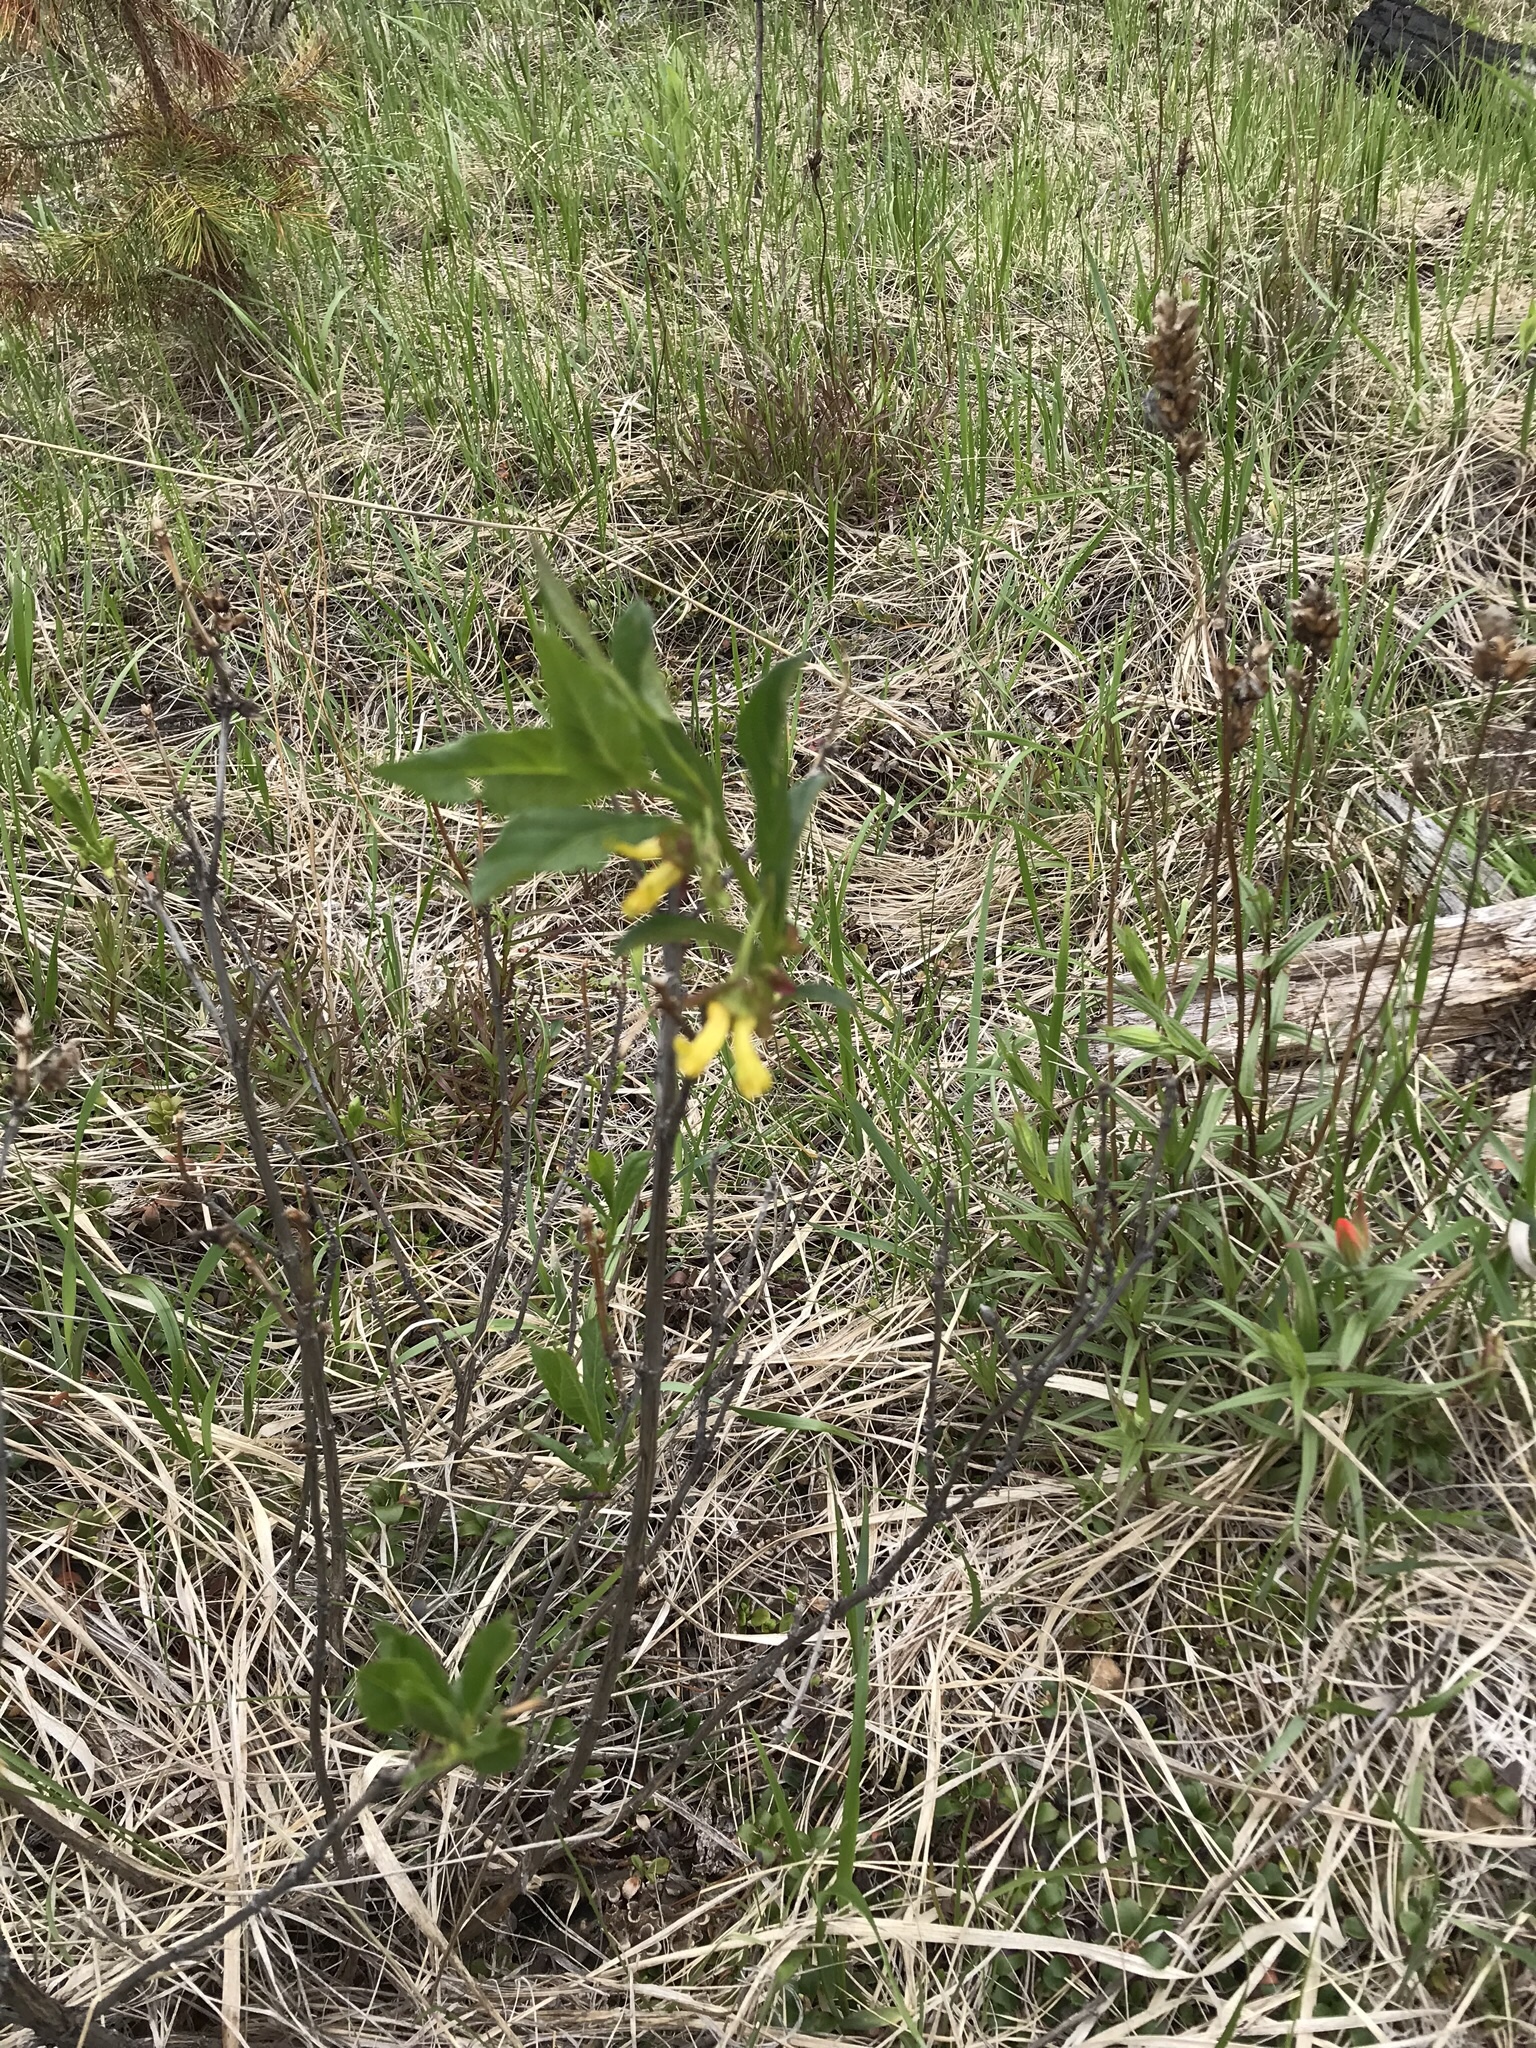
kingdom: Plantae
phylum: Tracheophyta
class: Magnoliopsida
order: Dipsacales
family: Caprifoliaceae
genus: Lonicera
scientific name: Lonicera involucrata
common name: Californian honeysuckle
